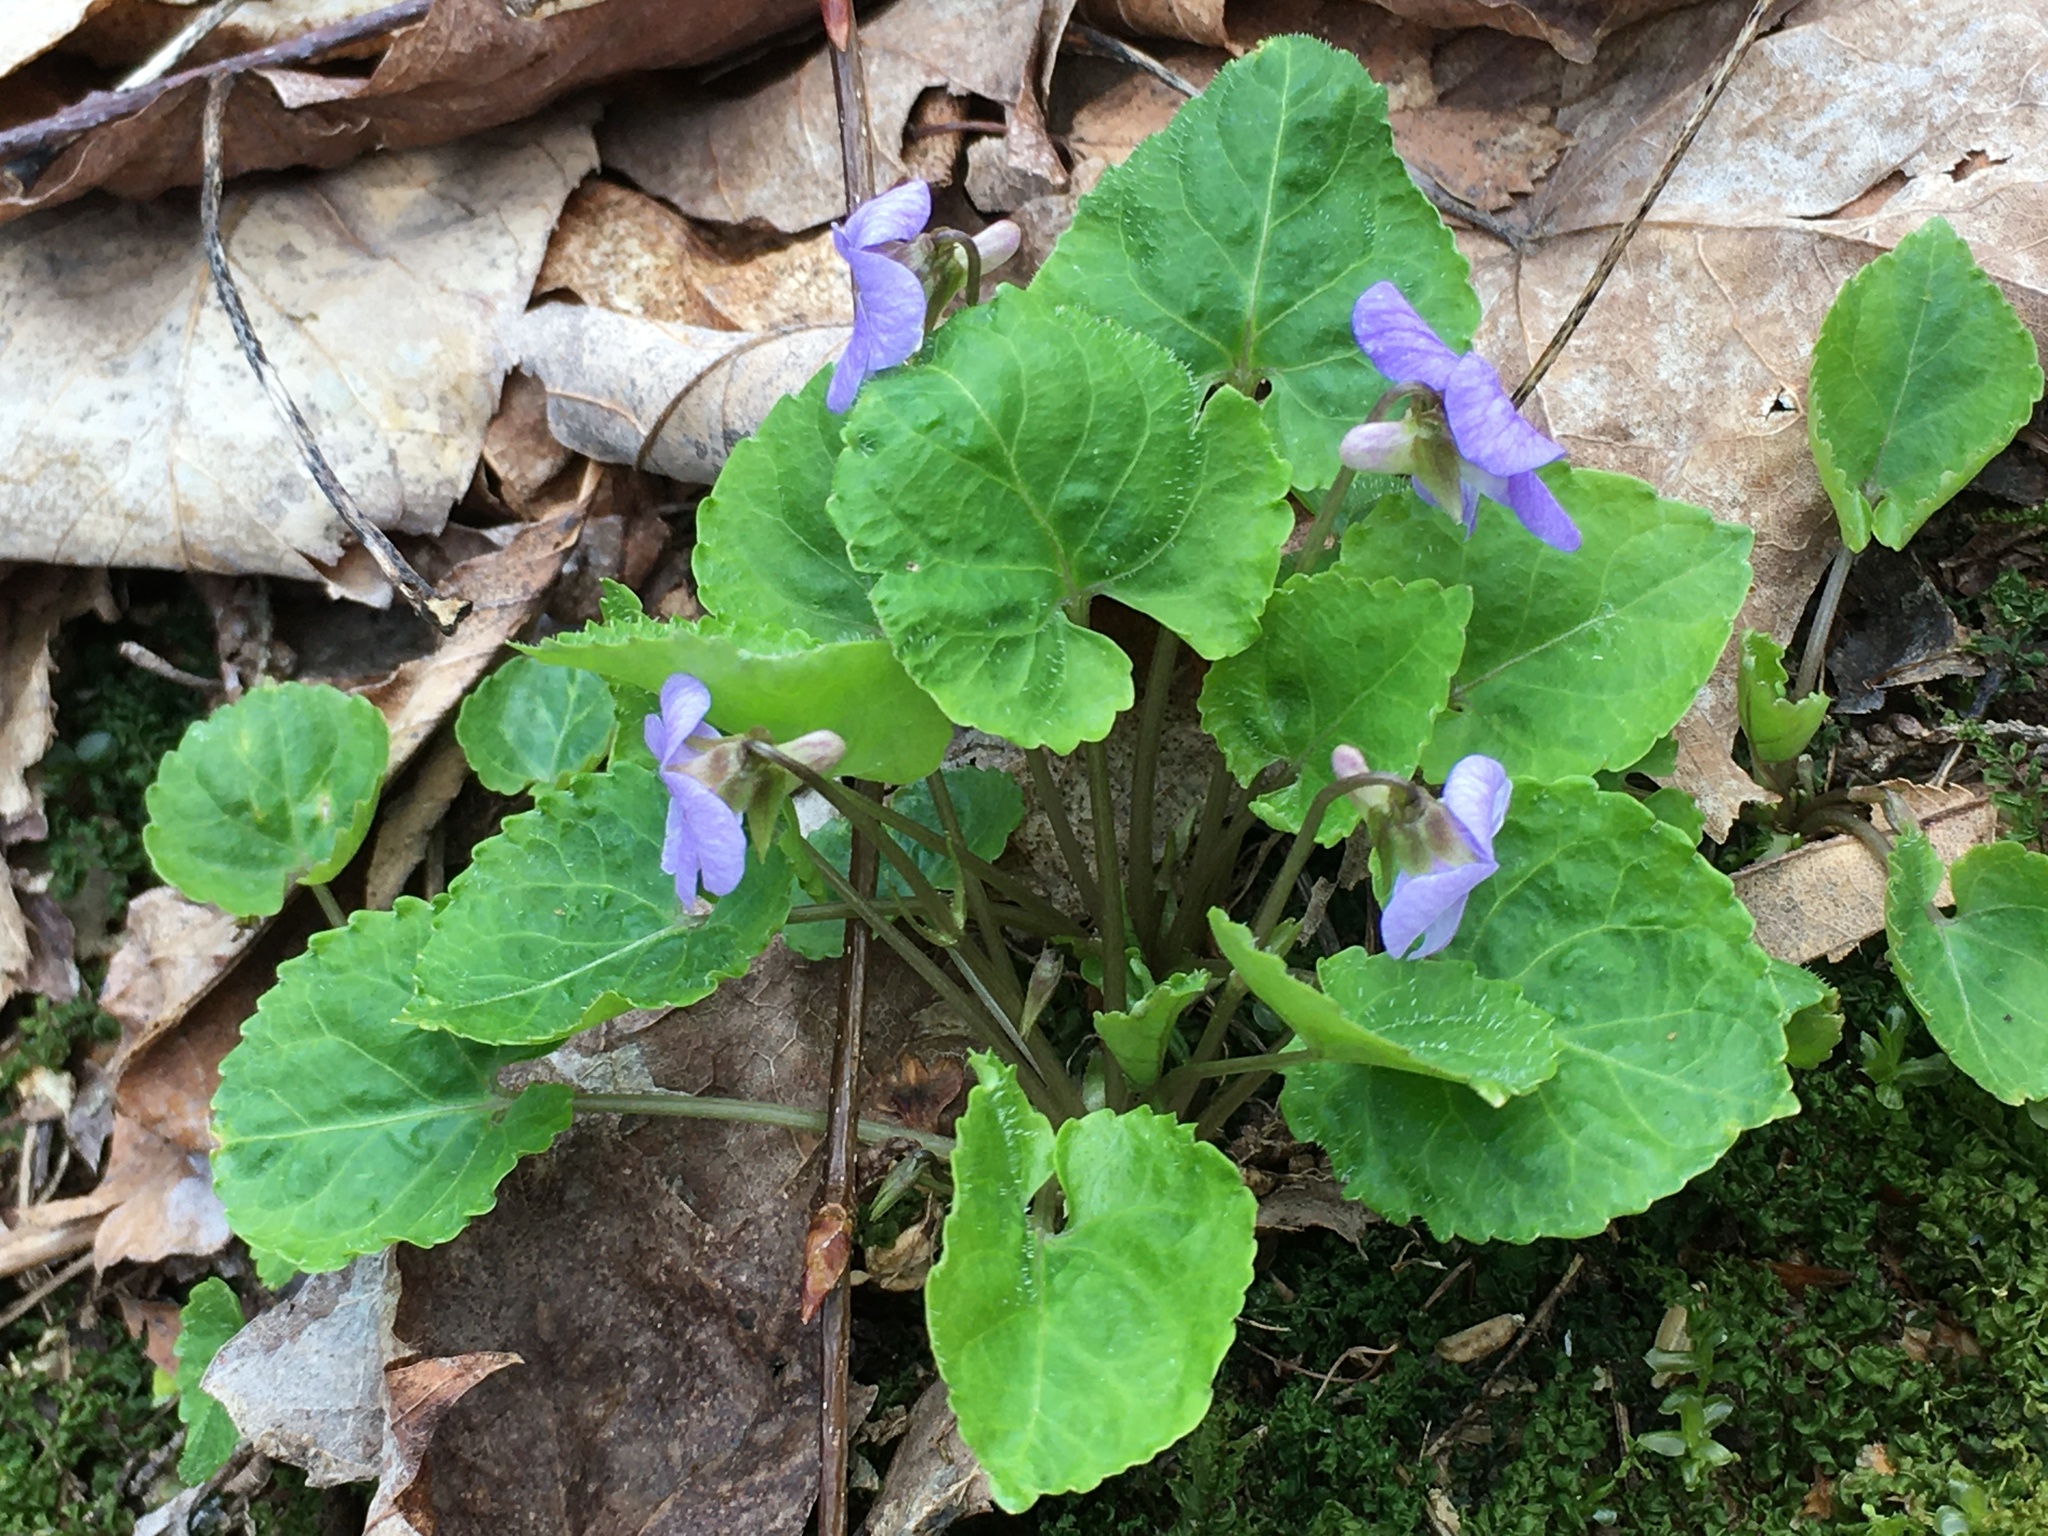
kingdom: Plantae
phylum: Tracheophyta
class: Magnoliopsida
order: Malpighiales
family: Violaceae
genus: Viola
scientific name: Viola selkirkii
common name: Selkirk's violet
